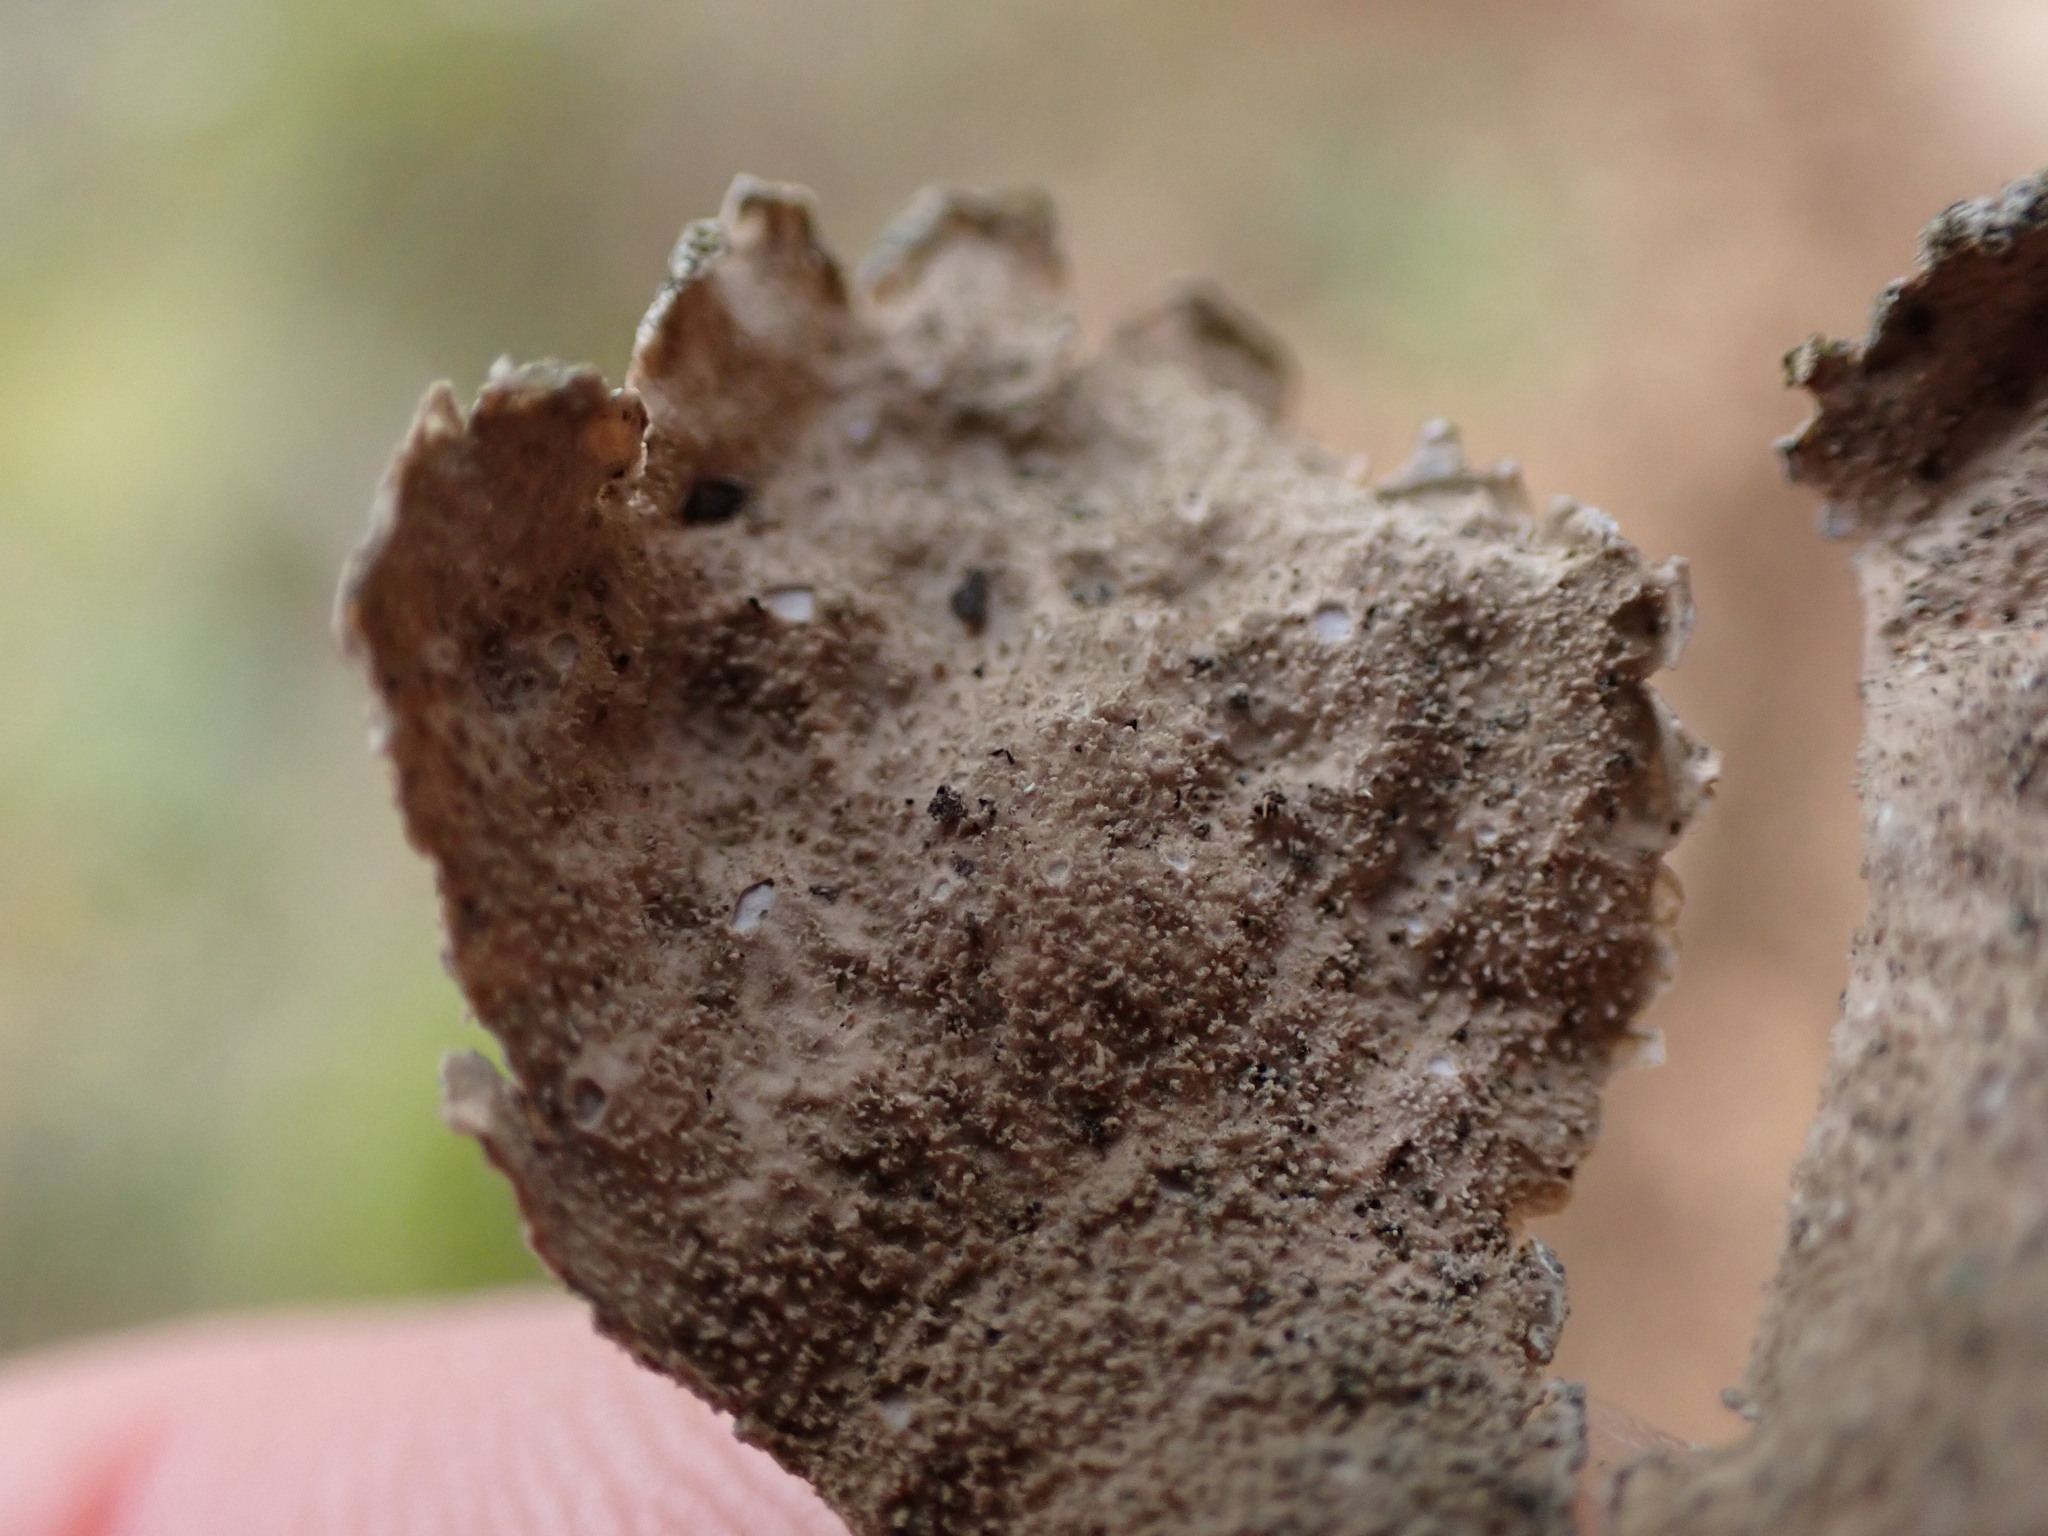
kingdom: Fungi
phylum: Ascomycota
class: Lecanoromycetes
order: Peltigerales
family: Lobariaceae
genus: Sticta
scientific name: Sticta limbata
